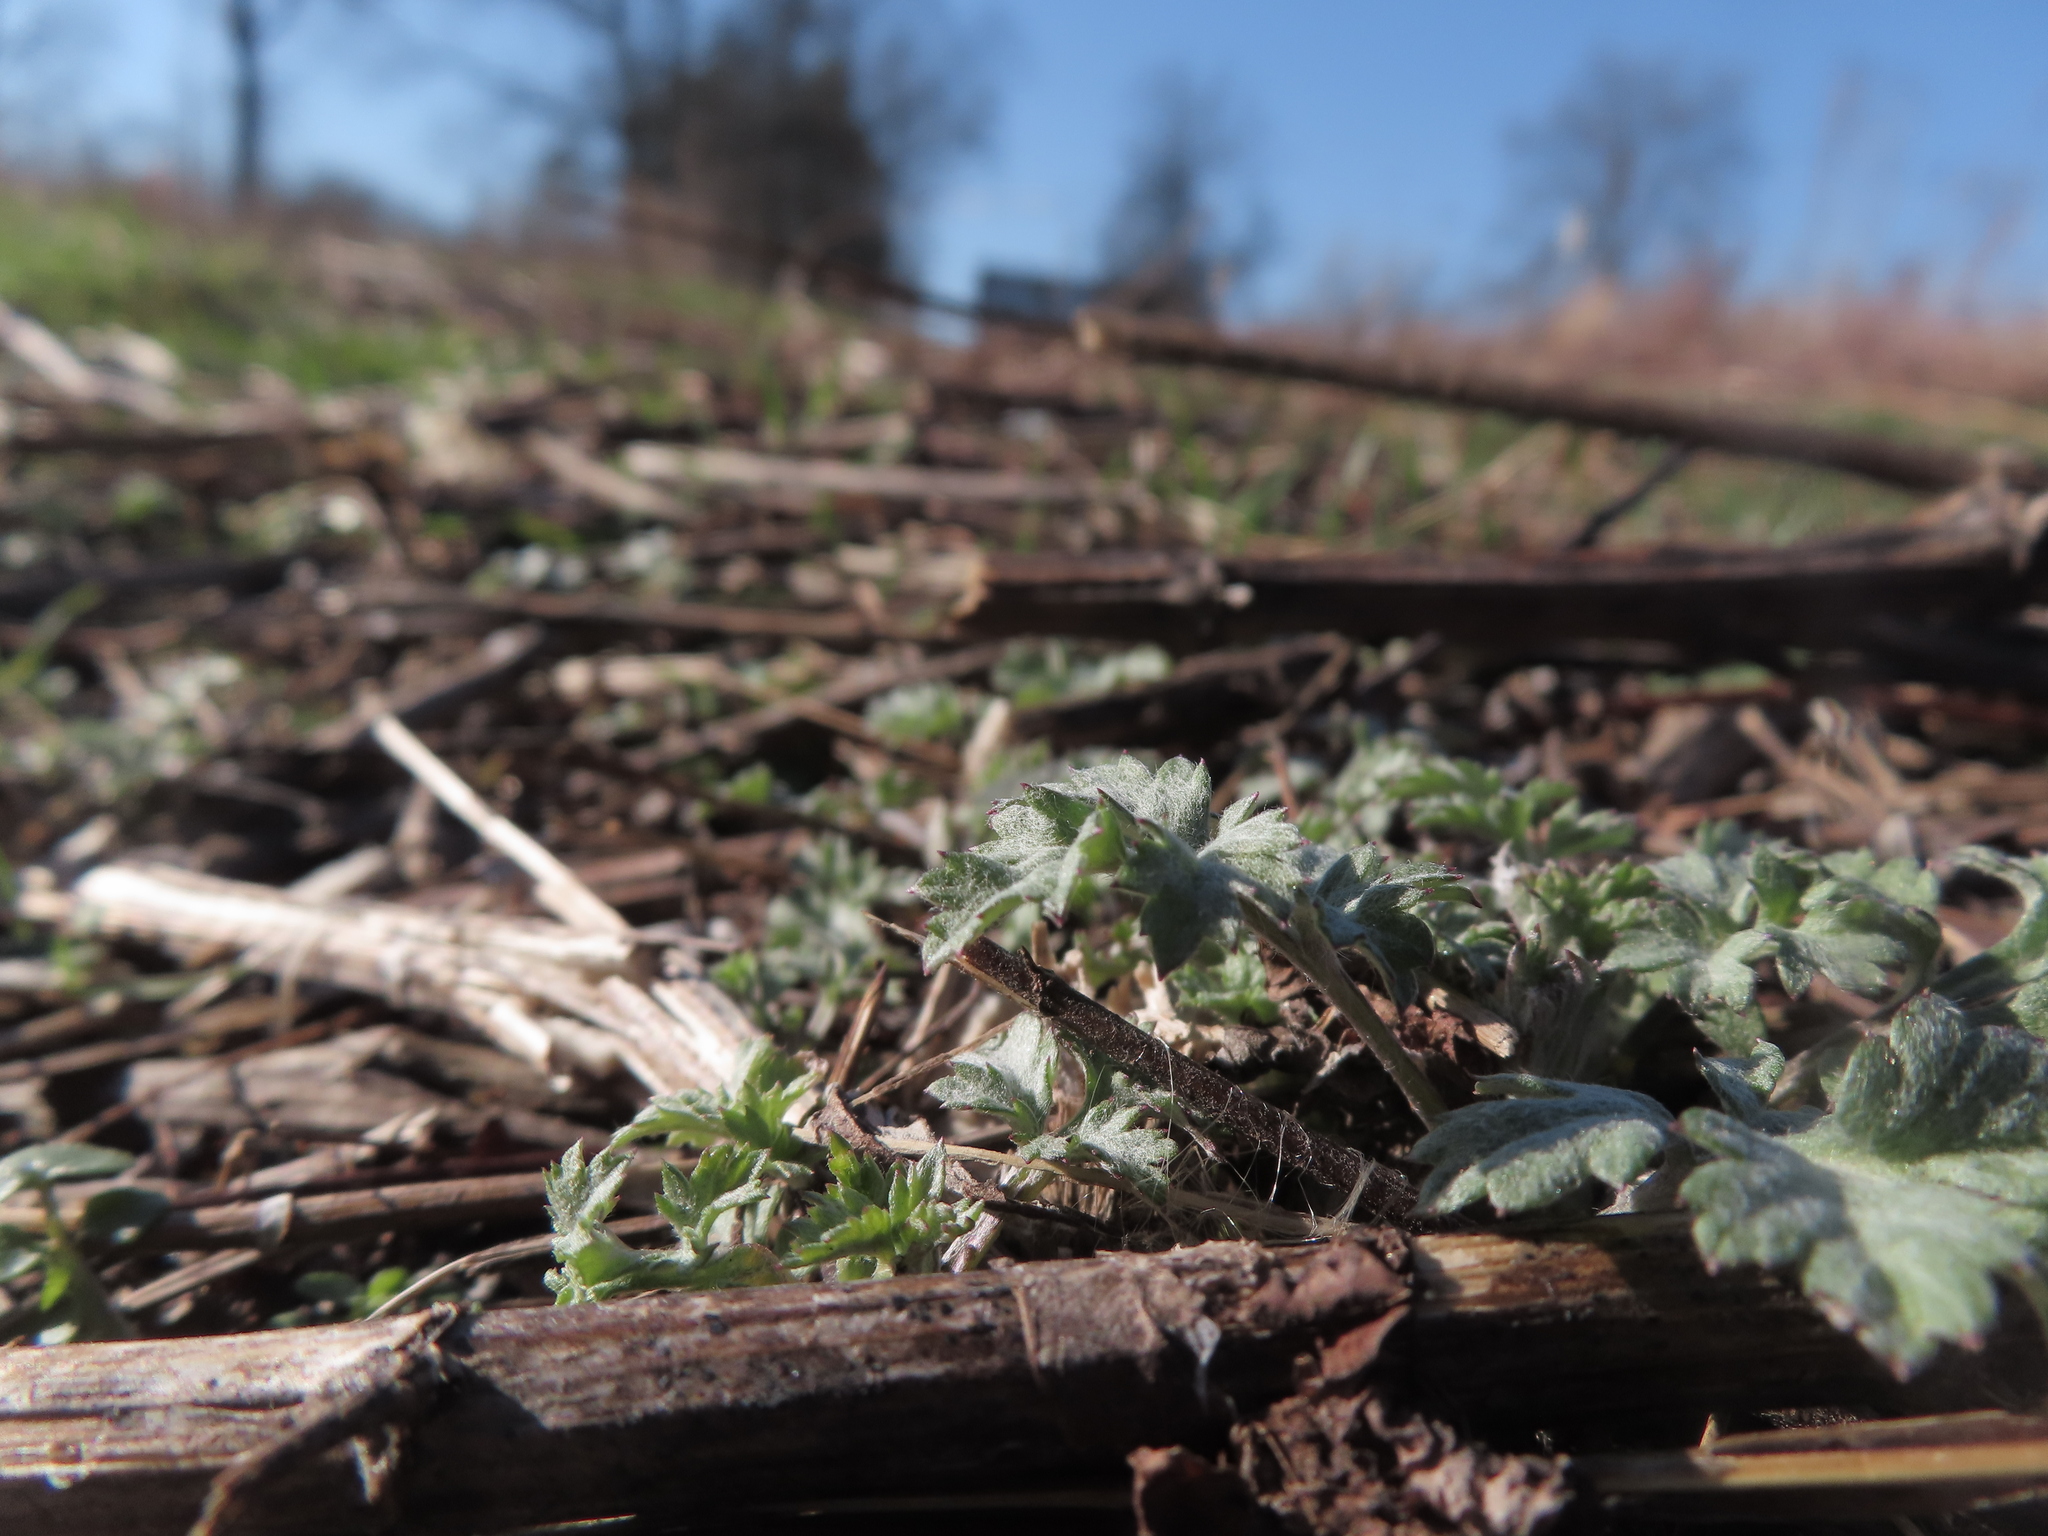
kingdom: Plantae
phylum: Tracheophyta
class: Magnoliopsida
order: Asterales
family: Asteraceae
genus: Artemisia
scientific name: Artemisia vulgaris
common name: Mugwort
